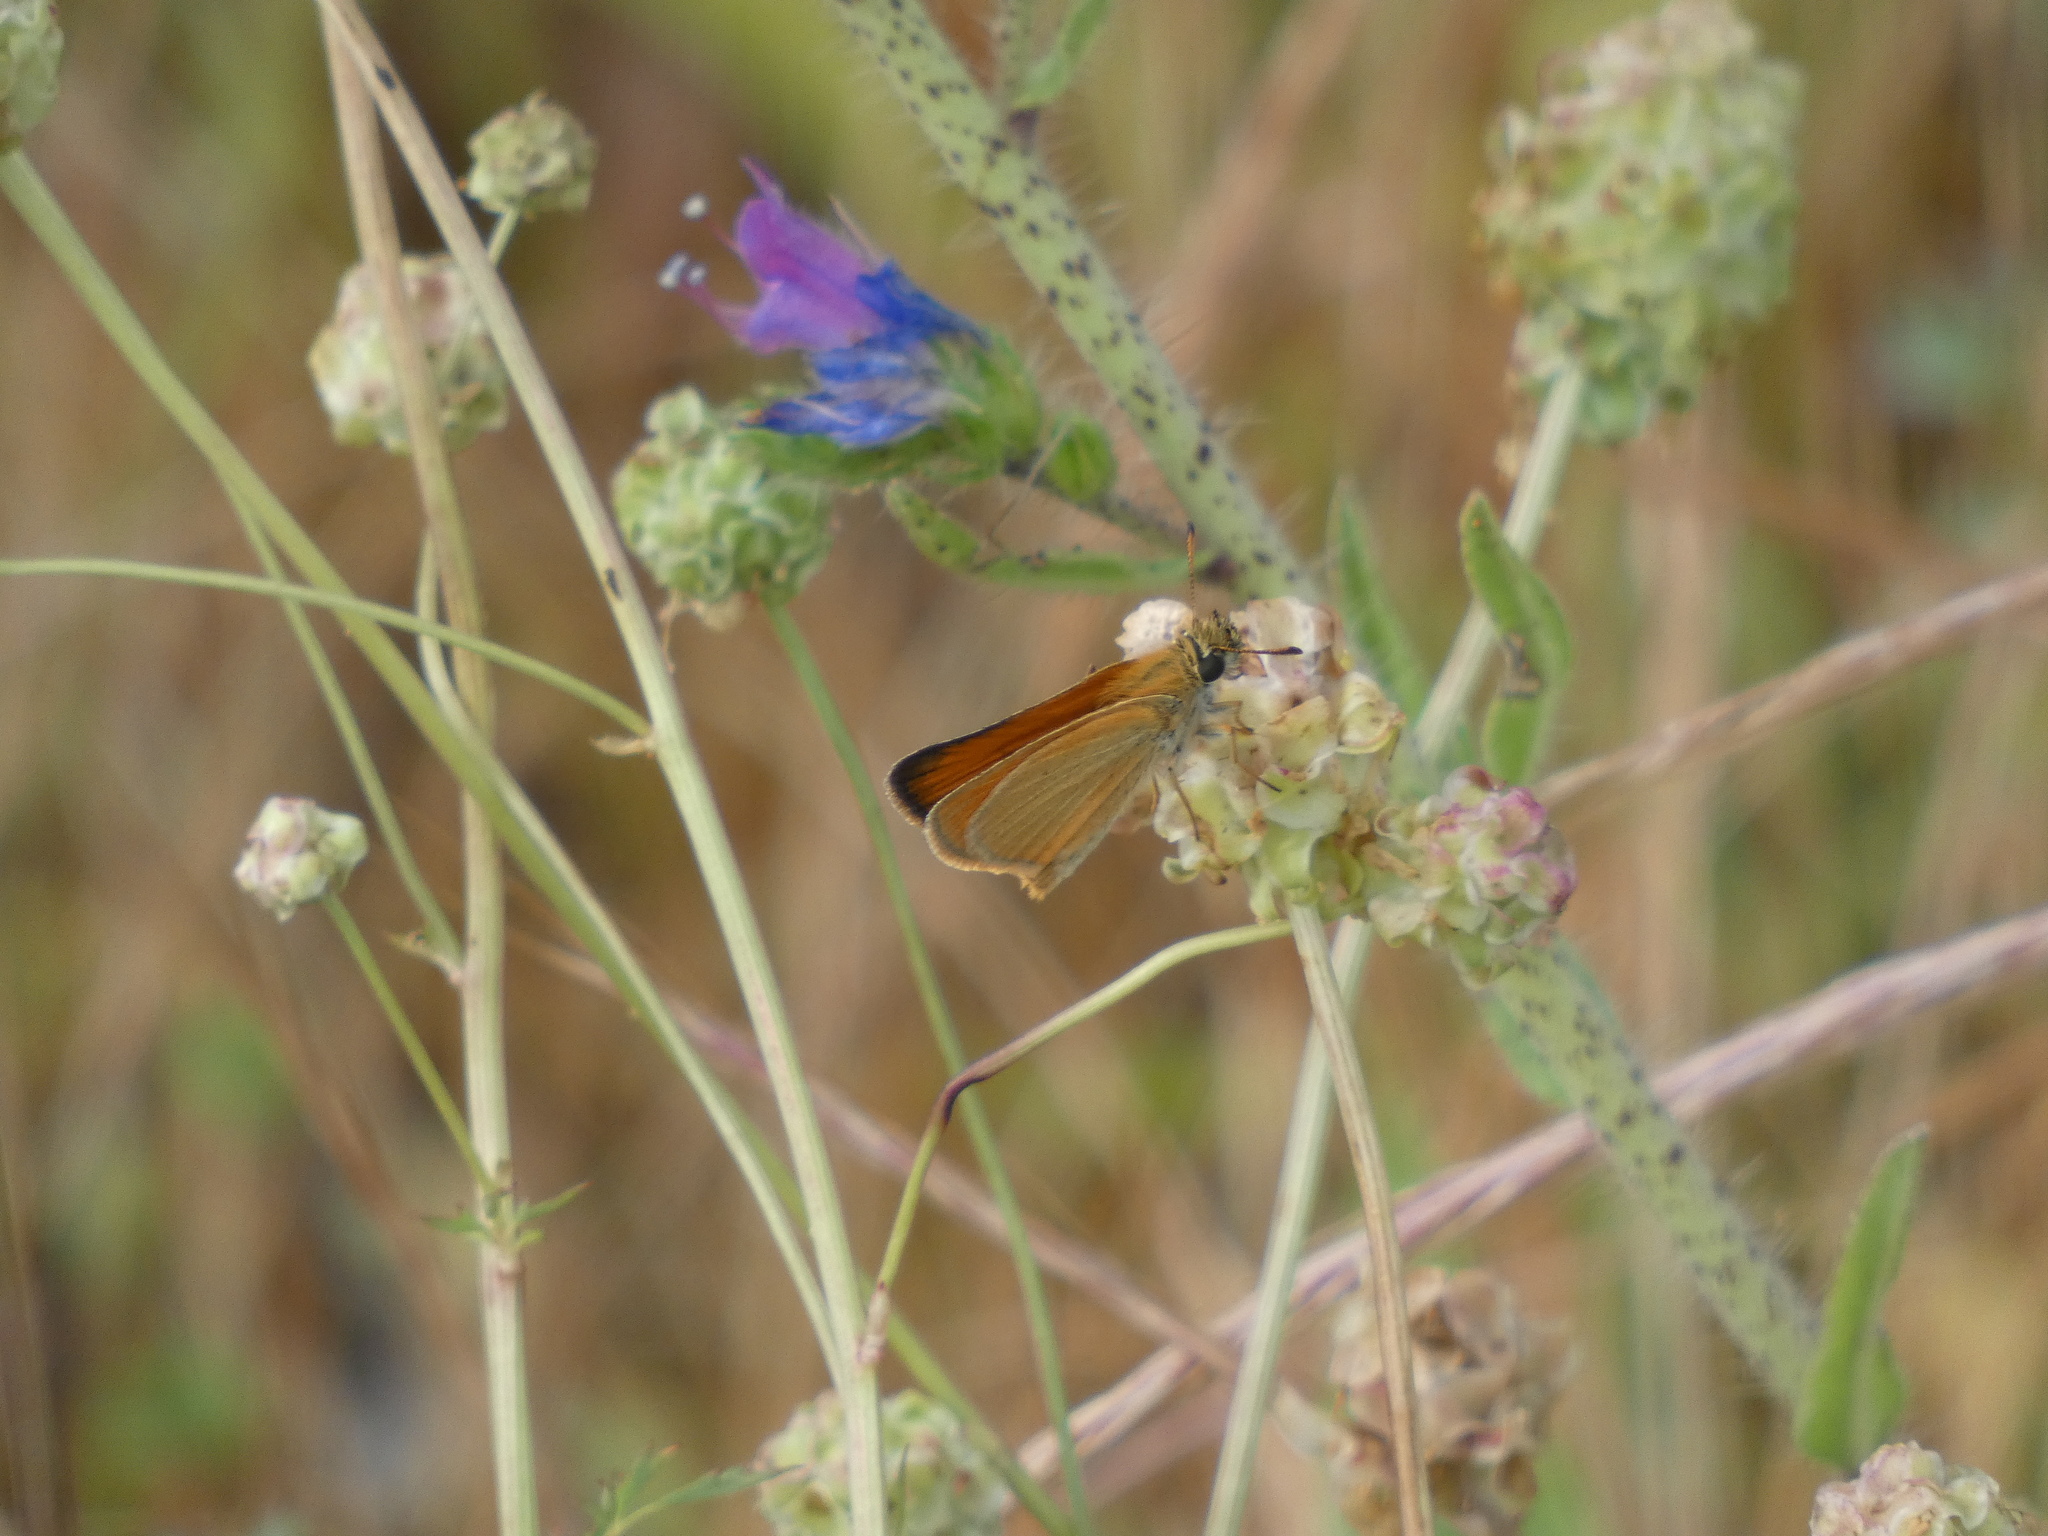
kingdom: Animalia
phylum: Arthropoda
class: Insecta
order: Lepidoptera
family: Hesperiidae
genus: Thymelicus
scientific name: Thymelicus lineola
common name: Essex skipper
